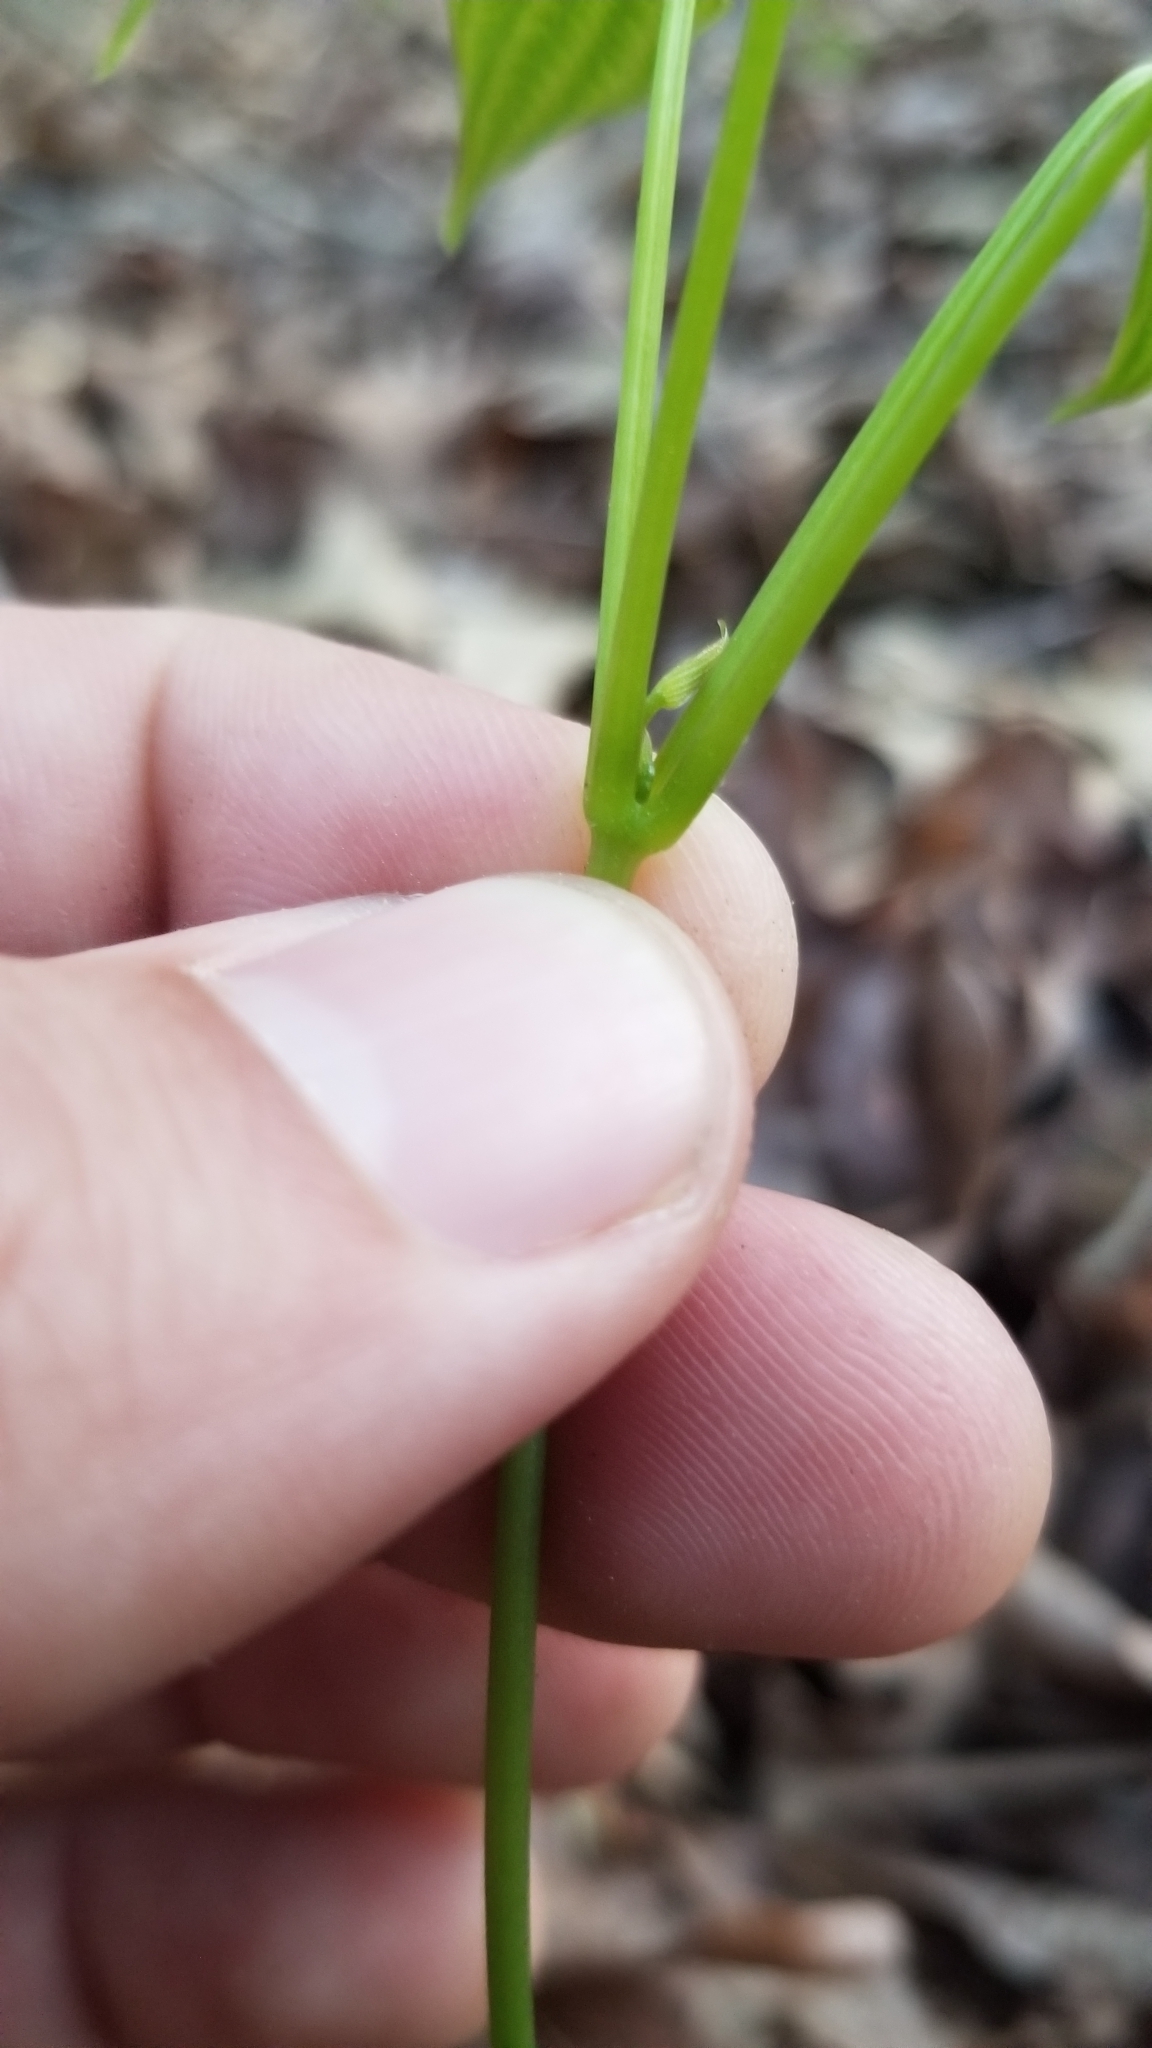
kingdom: Plantae
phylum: Tracheophyta
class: Liliopsida
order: Dioscoreales
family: Dioscoreaceae
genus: Dioscorea
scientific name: Dioscorea villosa
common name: Wild yam
